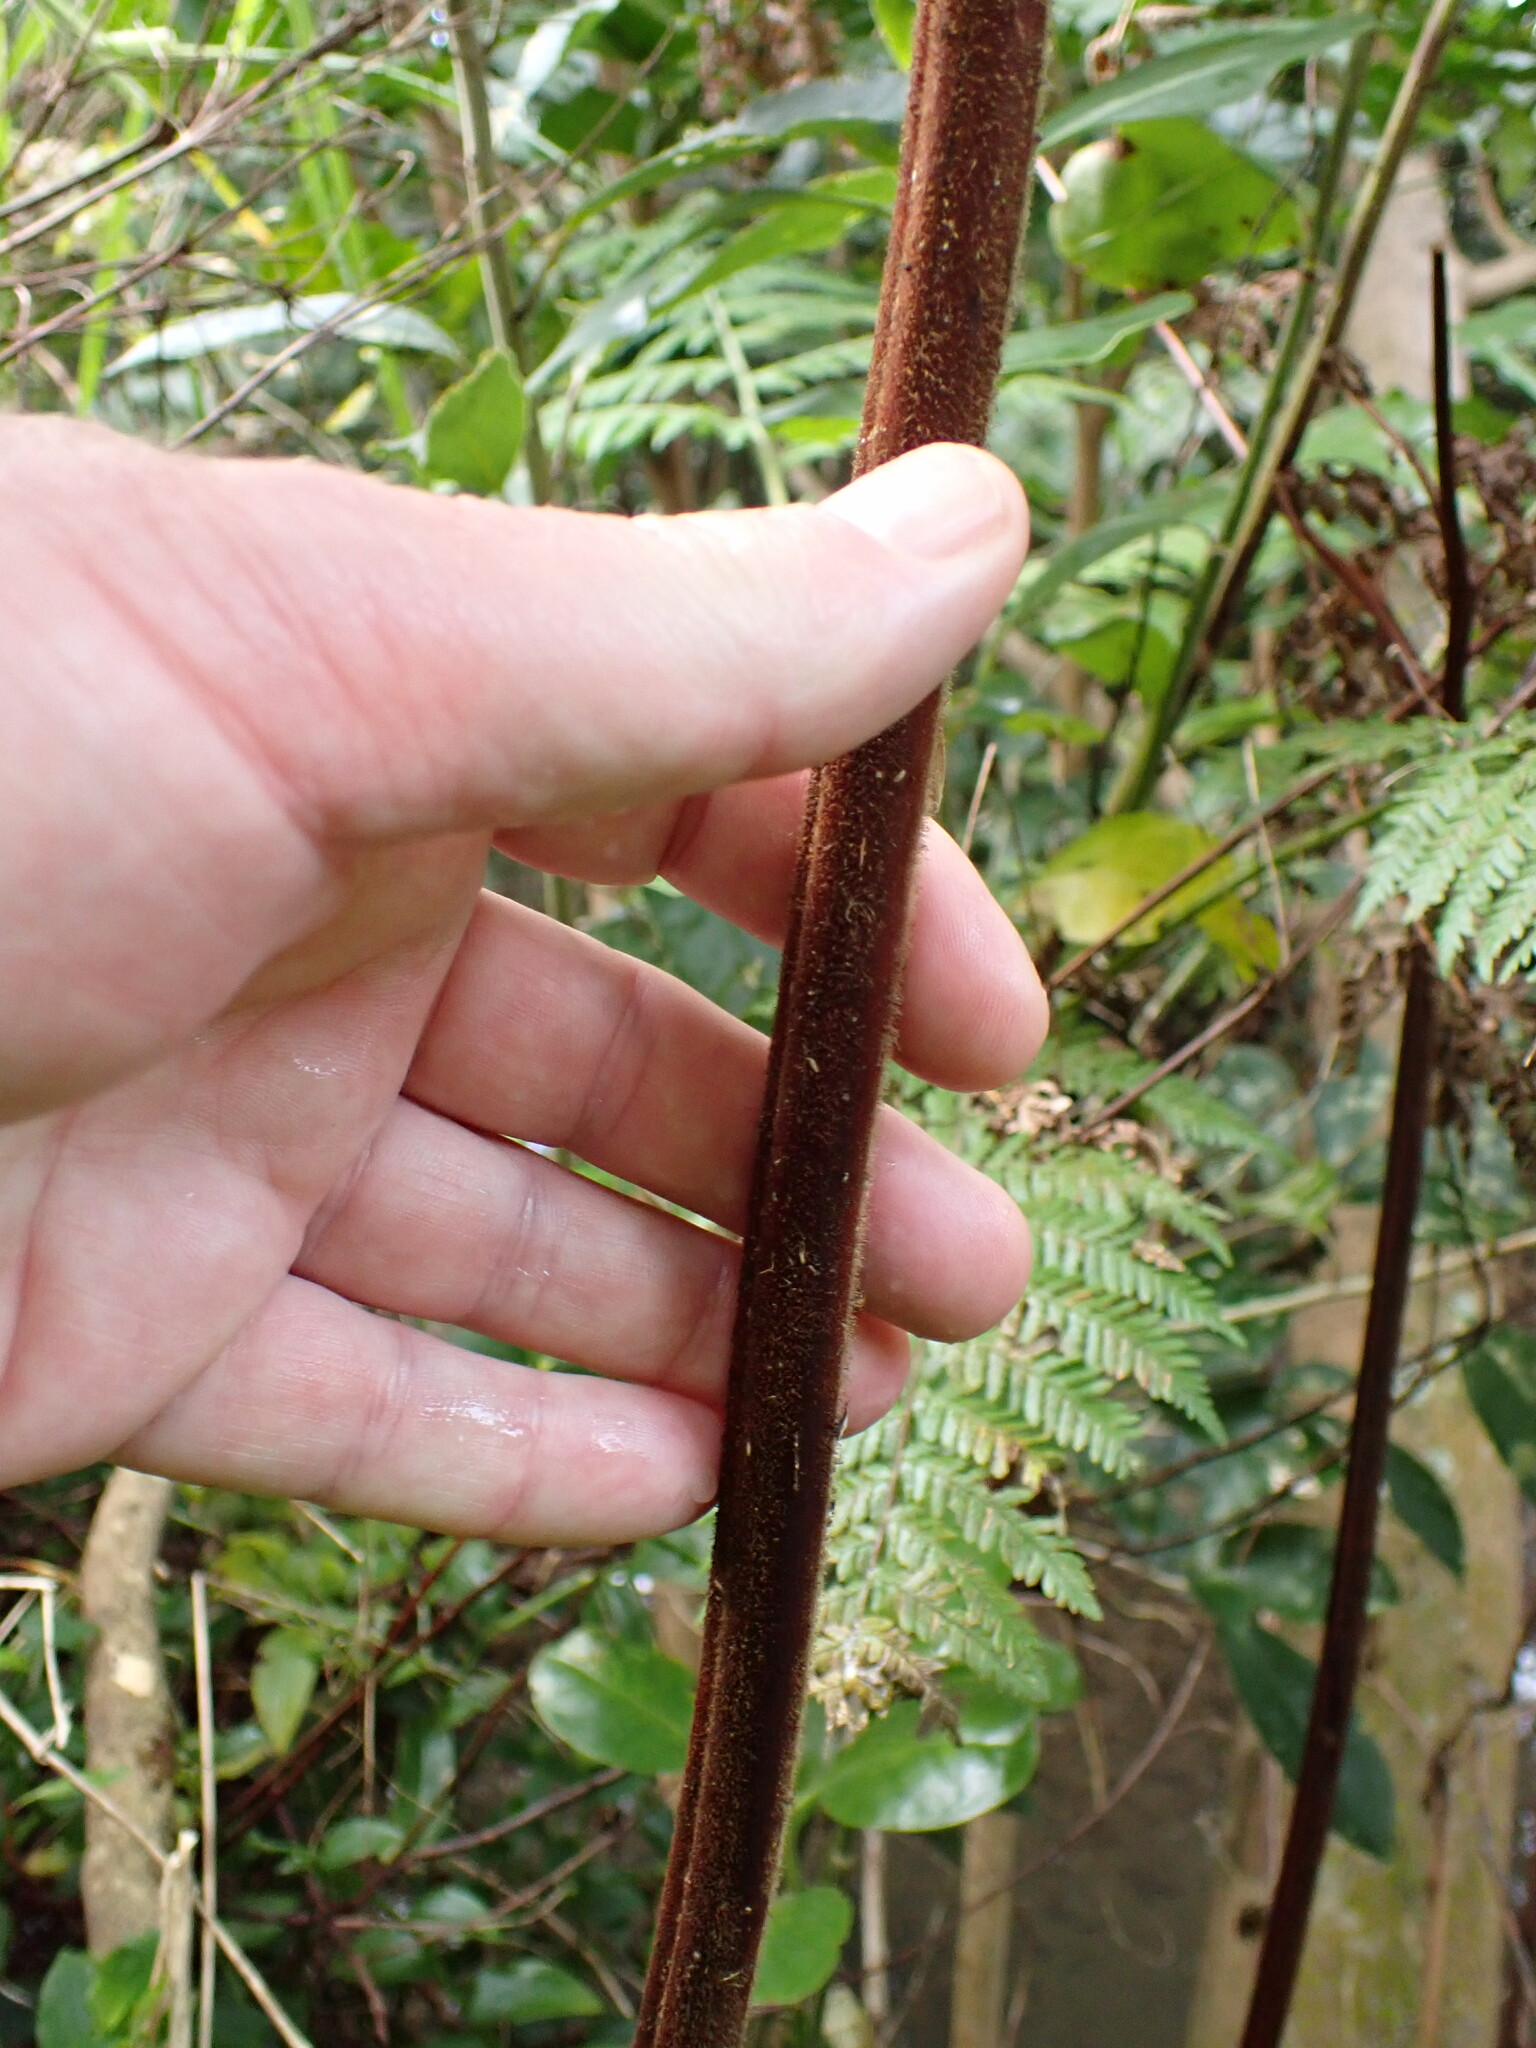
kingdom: Plantae
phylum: Tracheophyta
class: Polypodiopsida
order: Polypodiales
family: Dennstaedtiaceae
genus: Hypolepis
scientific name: Hypolepis dicksonioides
